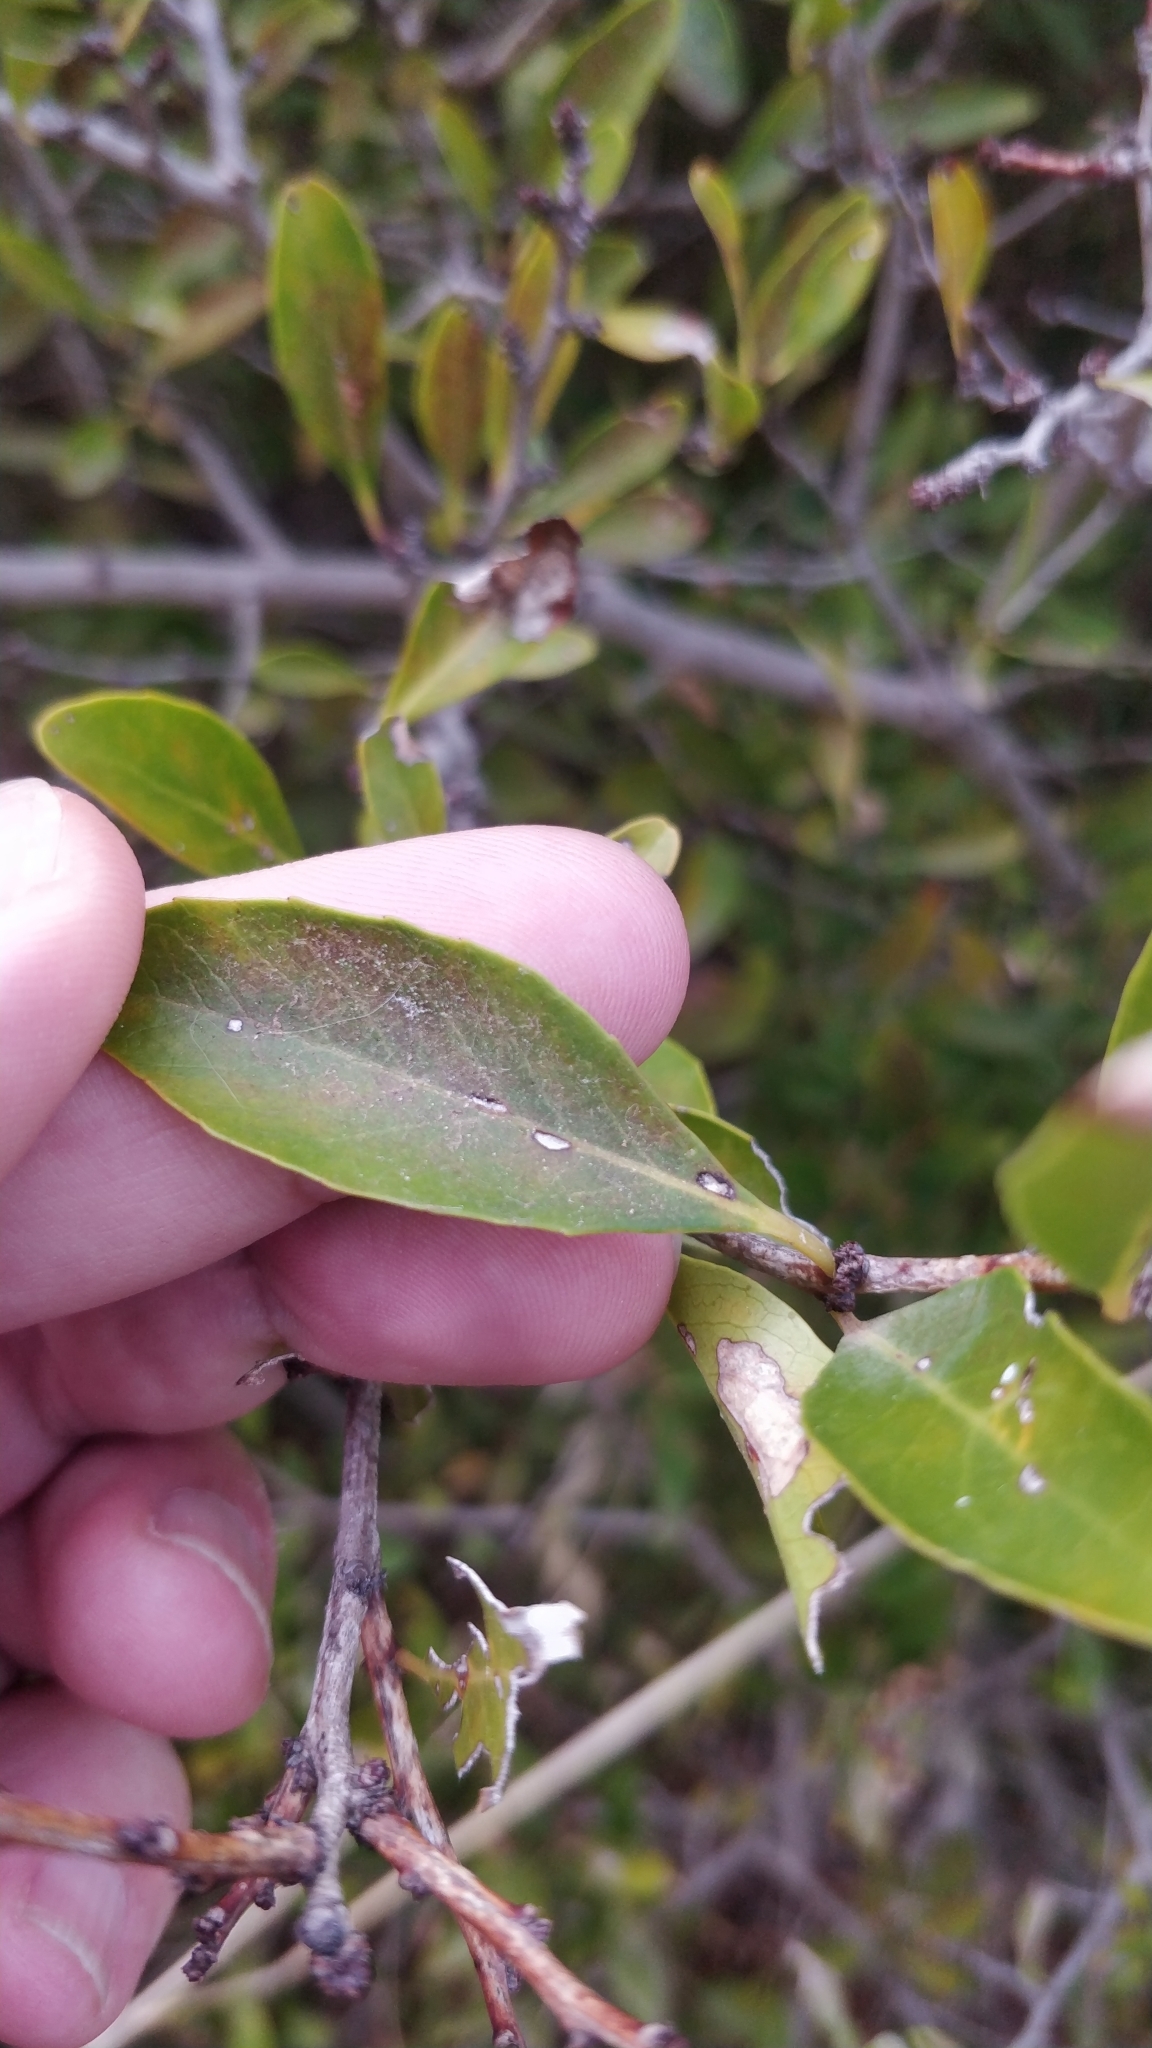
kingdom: Plantae
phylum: Tracheophyta
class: Magnoliopsida
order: Celastrales
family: Celastraceae
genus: Gymnosporia
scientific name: Gymnosporia dryandri
